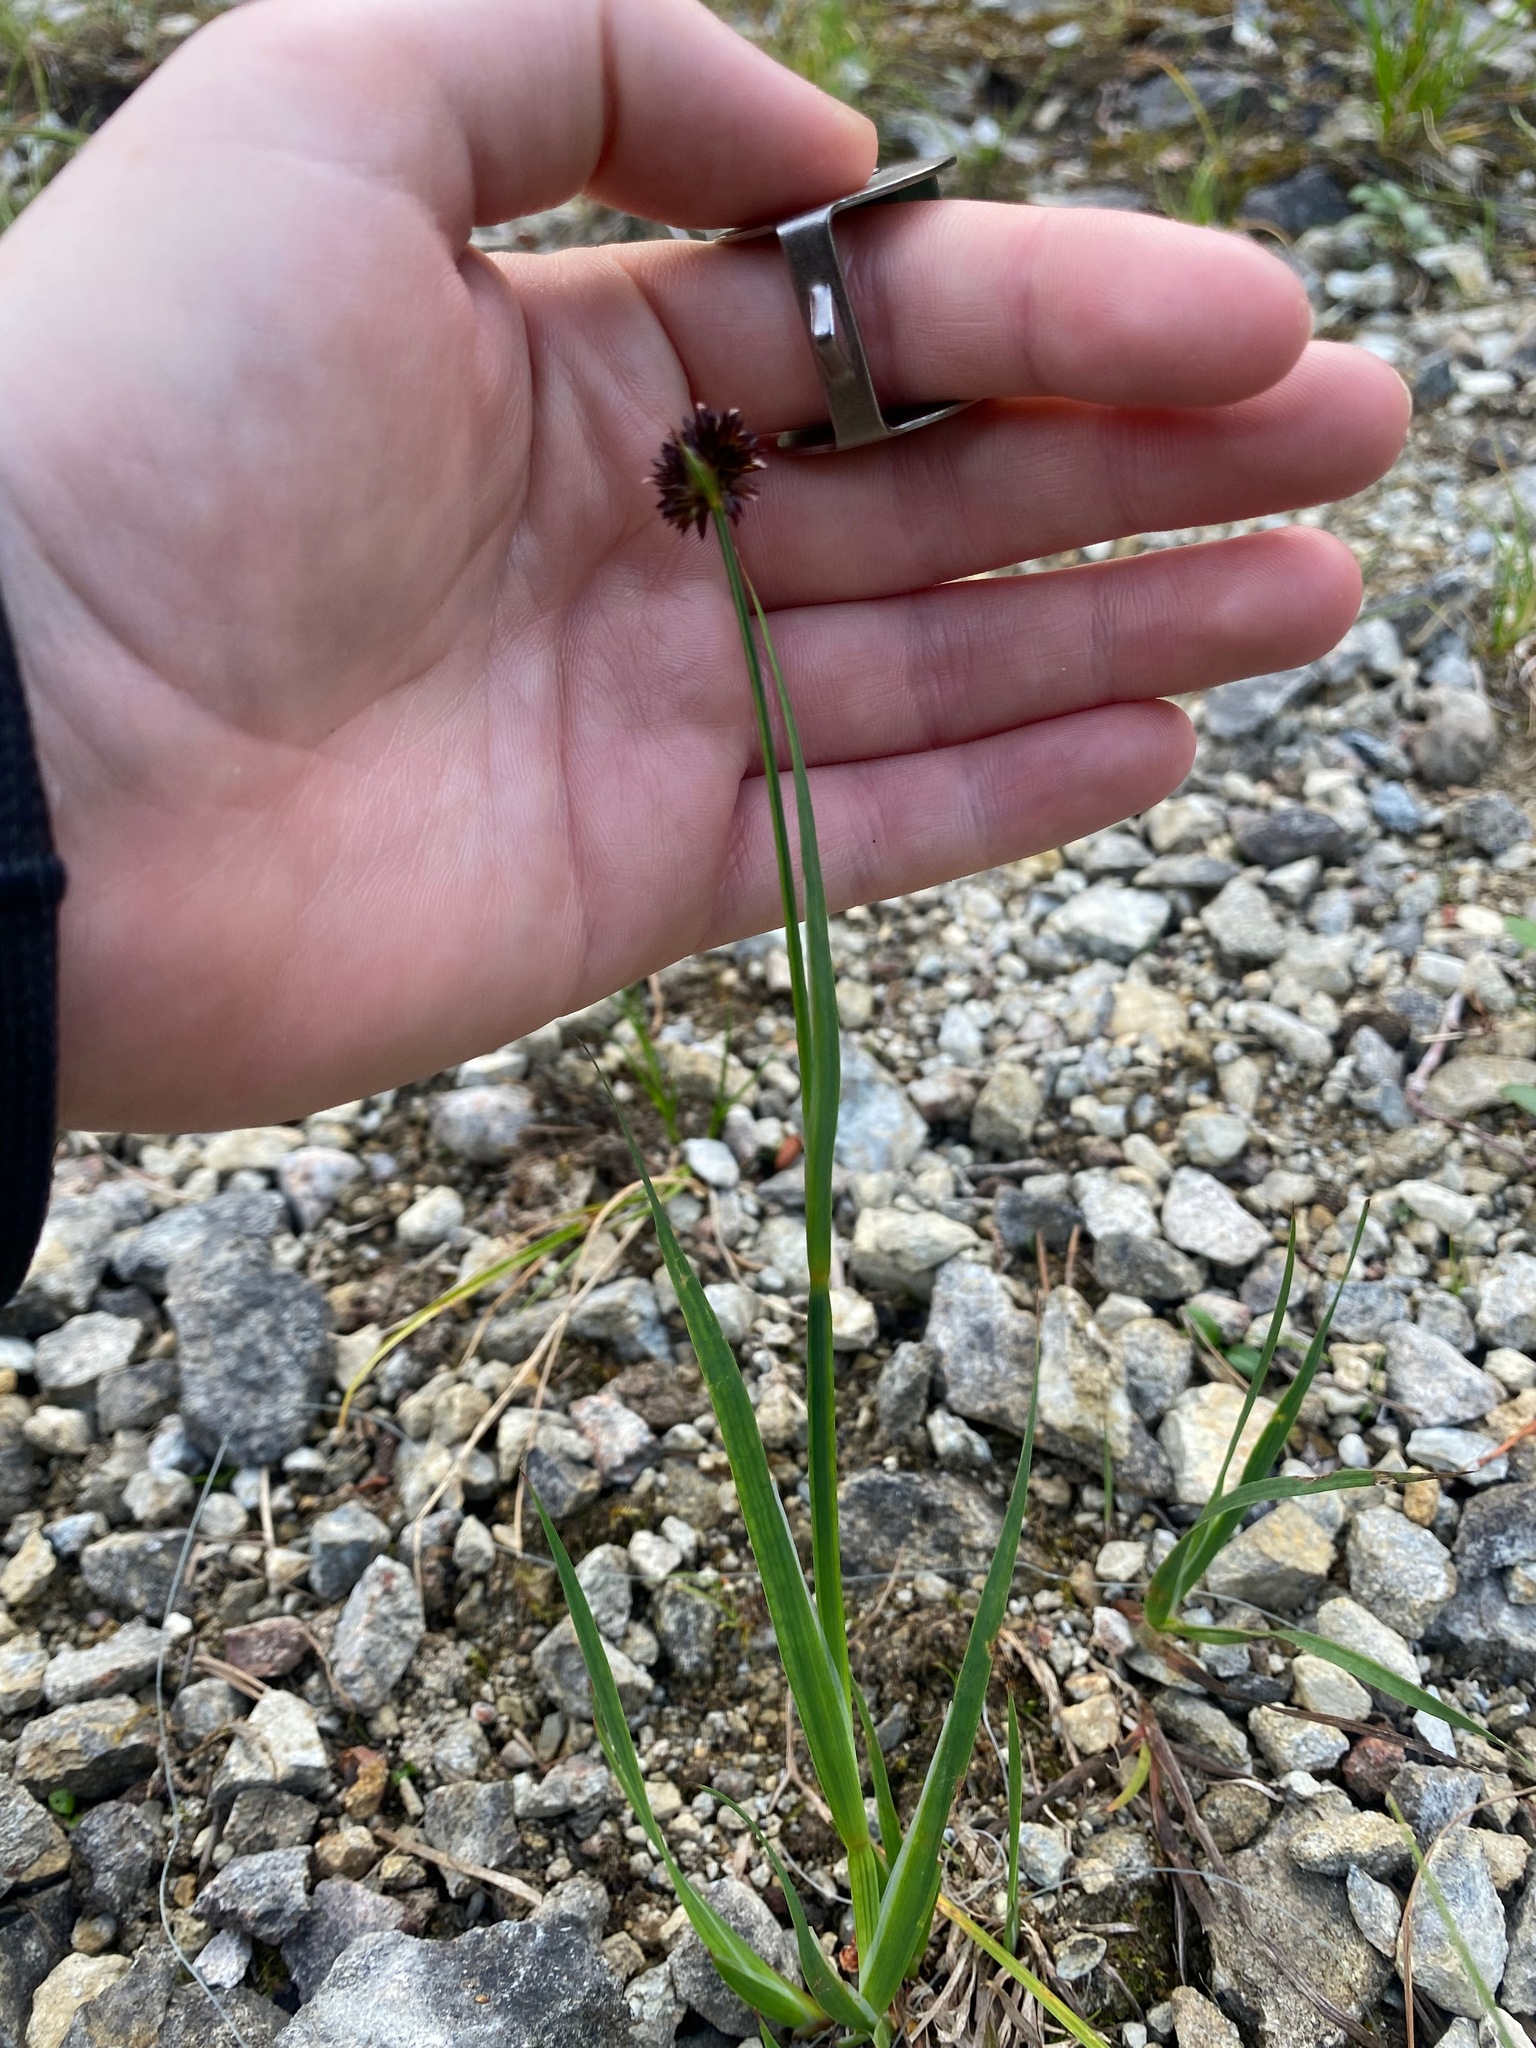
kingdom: Plantae
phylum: Tracheophyta
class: Liliopsida
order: Poales
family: Juncaceae
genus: Juncus
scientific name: Juncus ensifolius
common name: Sword-leaved rush
